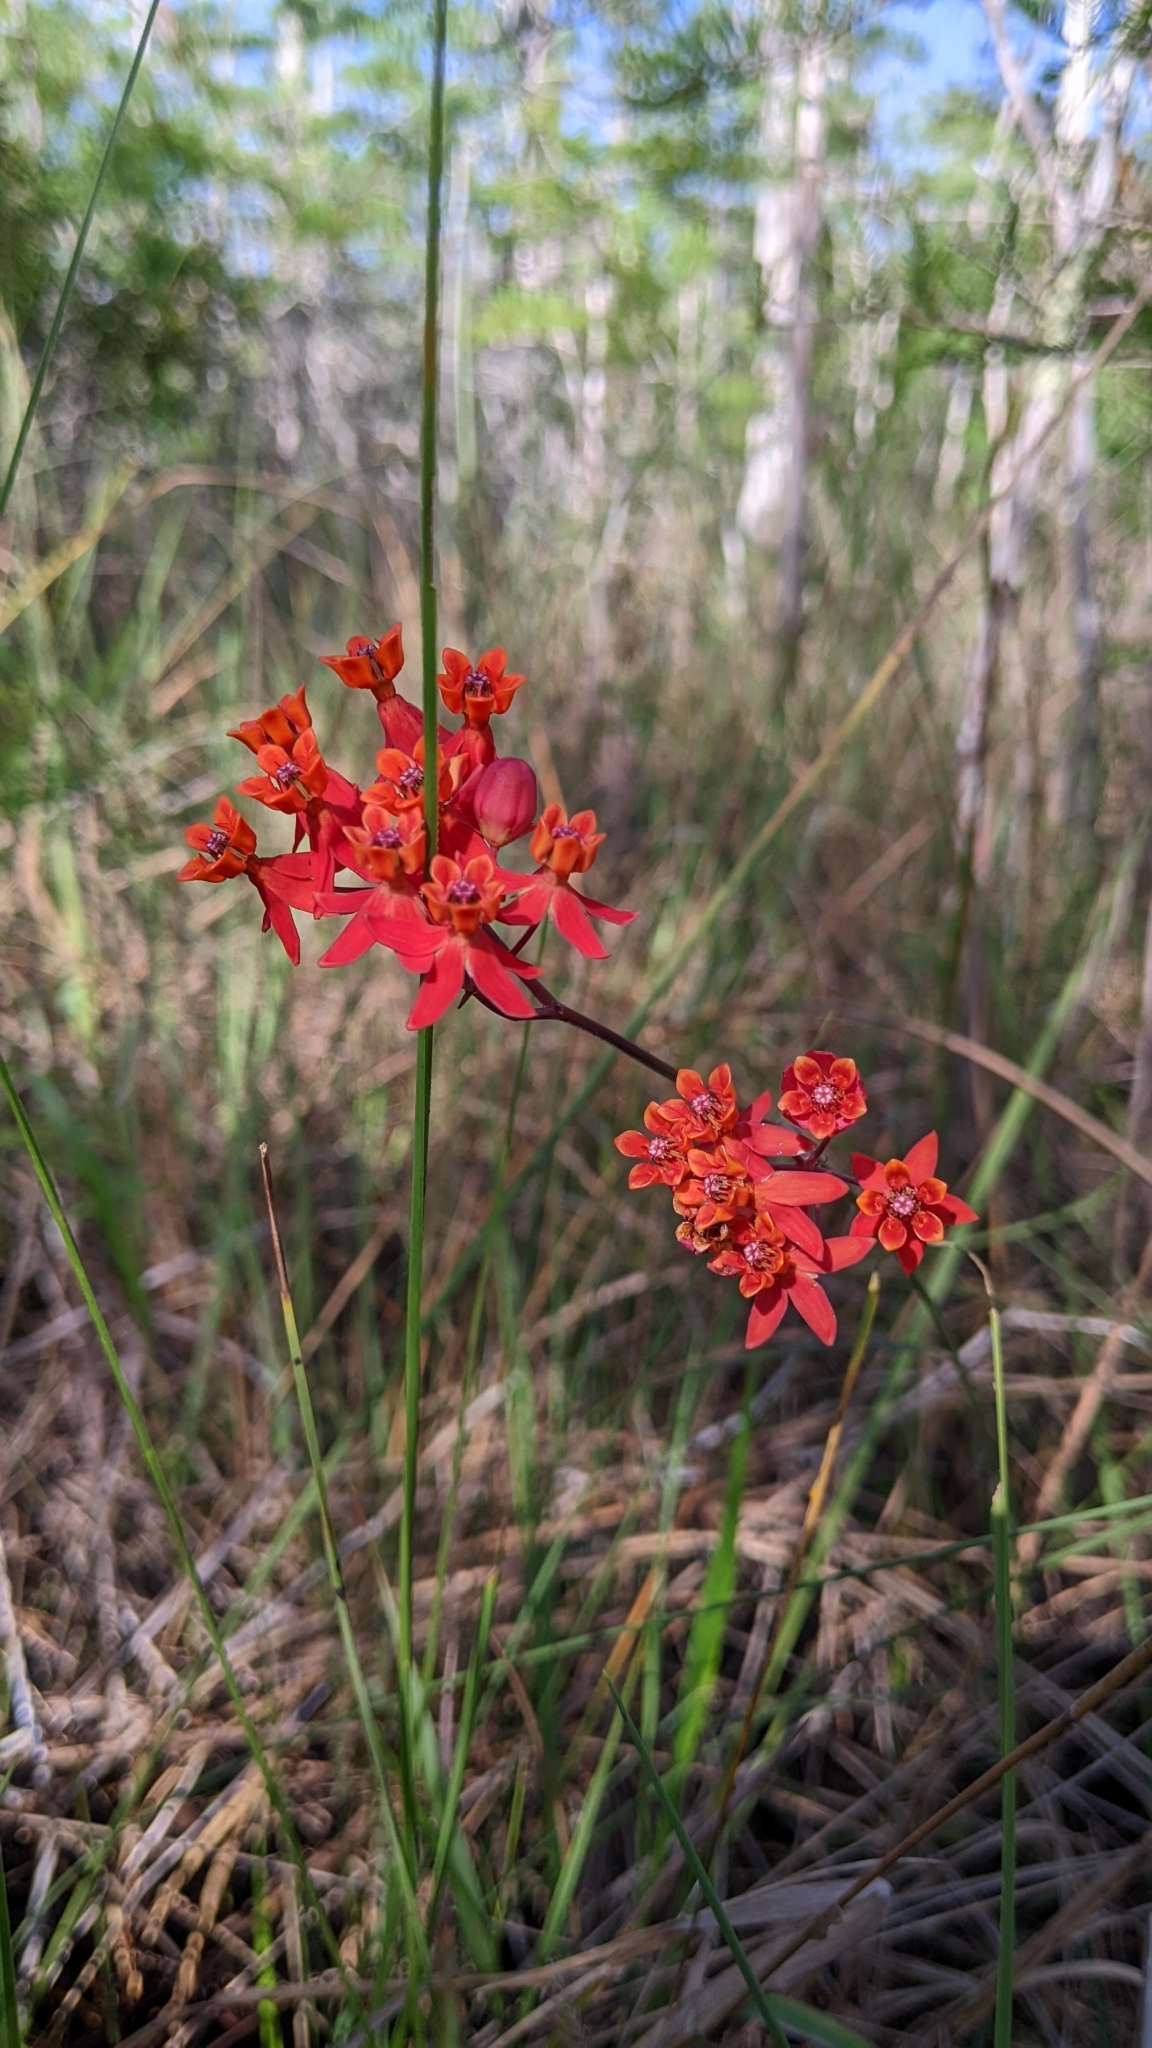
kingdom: Plantae
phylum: Tracheophyta
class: Magnoliopsida
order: Gentianales
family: Apocynaceae
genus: Asclepias
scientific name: Asclepias lanceolata
